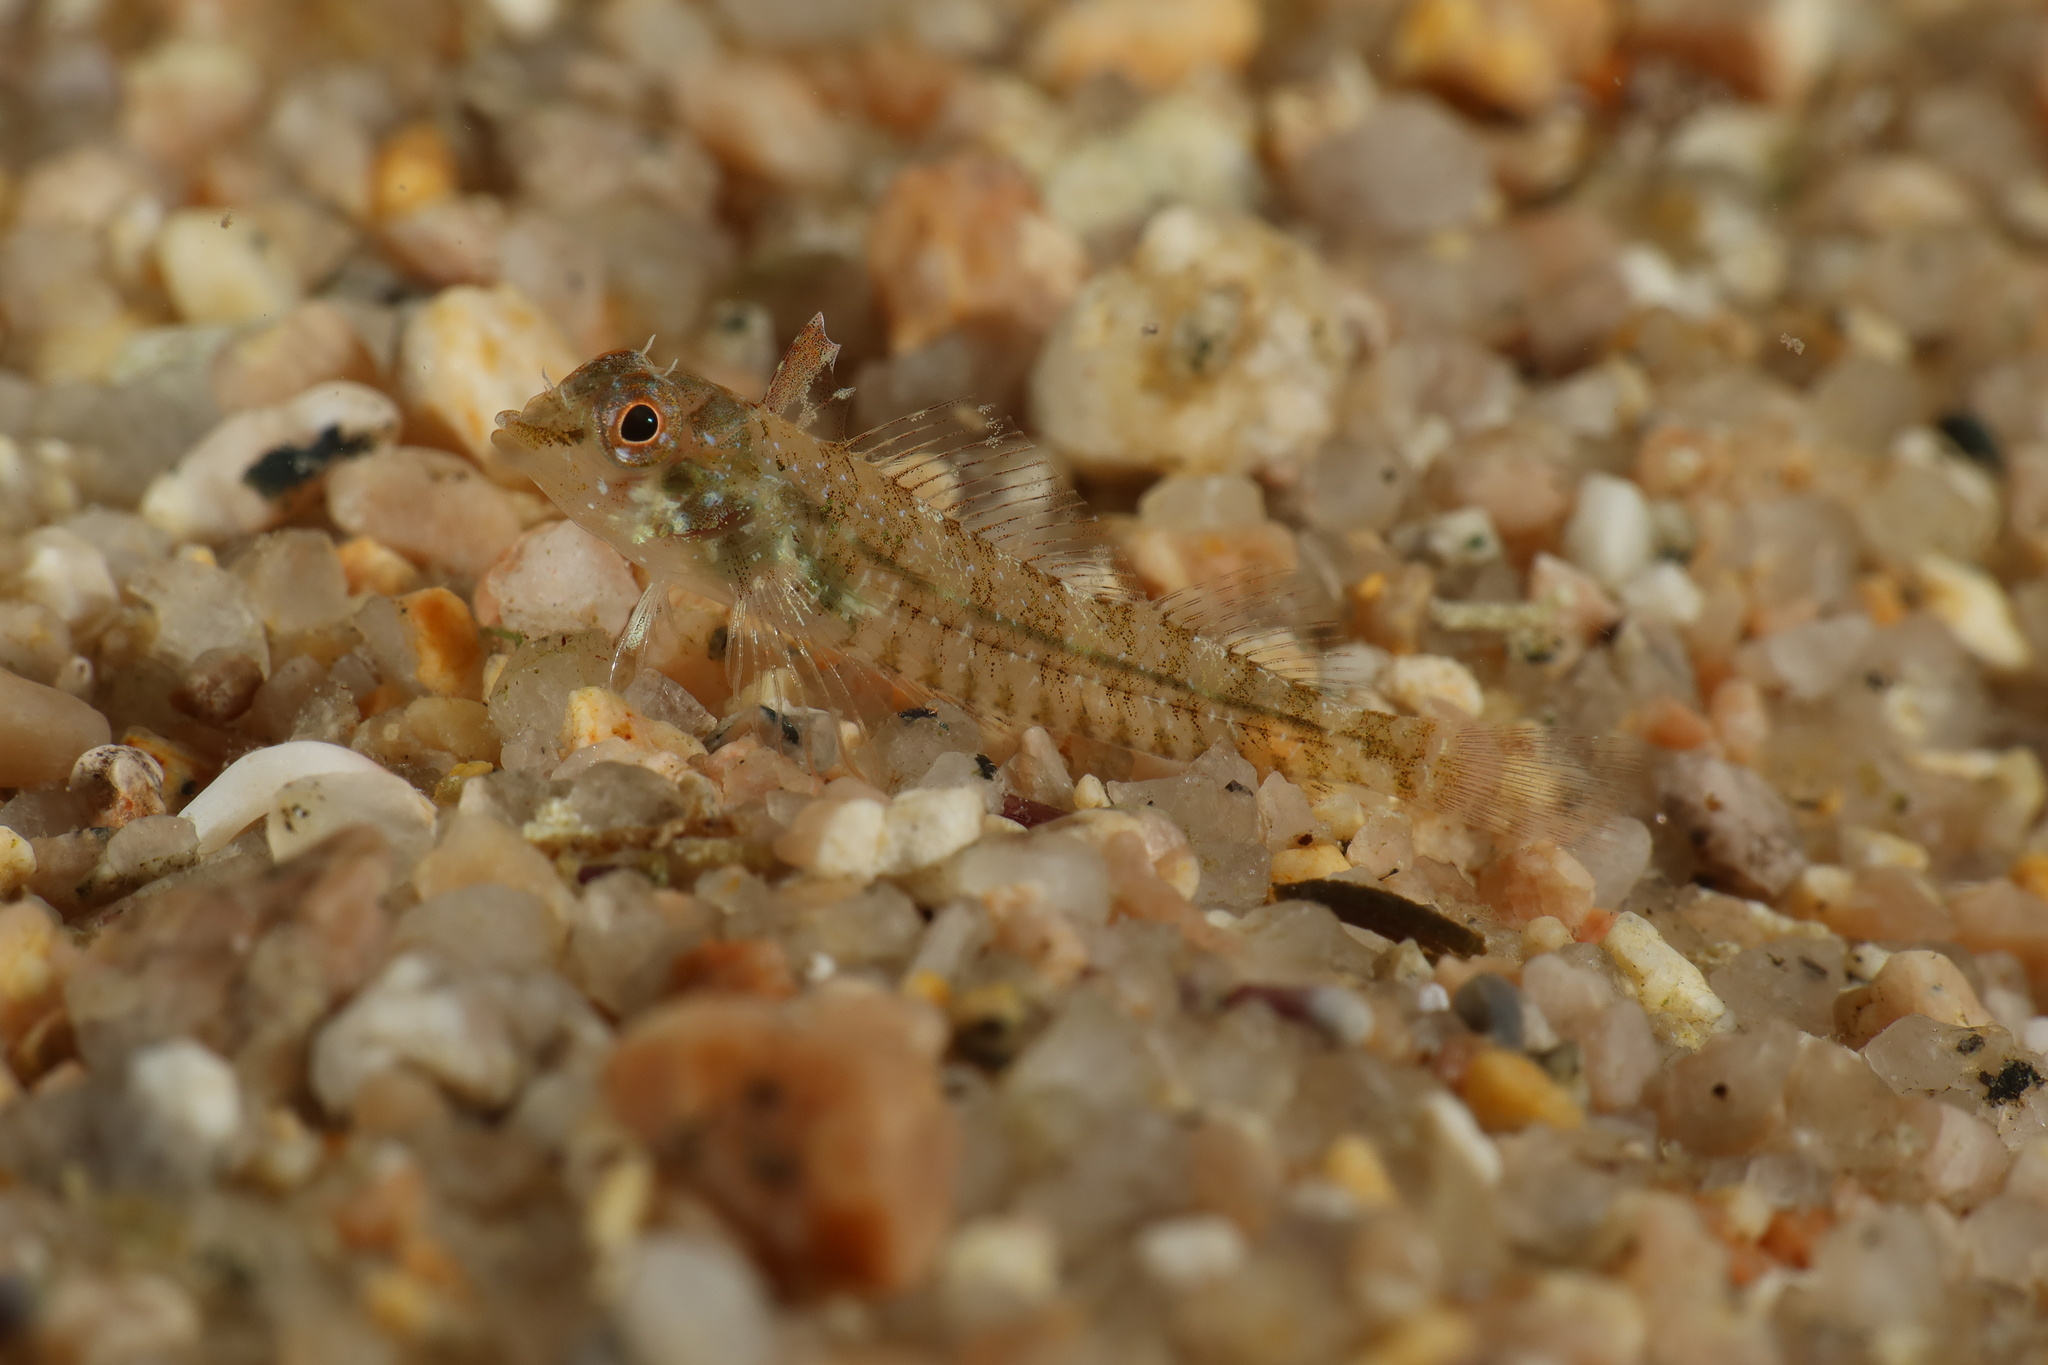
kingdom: Animalia
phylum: Chordata
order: Perciformes
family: Tripterygiidae
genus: Tripterygion
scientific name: Tripterygion tripteronotum
